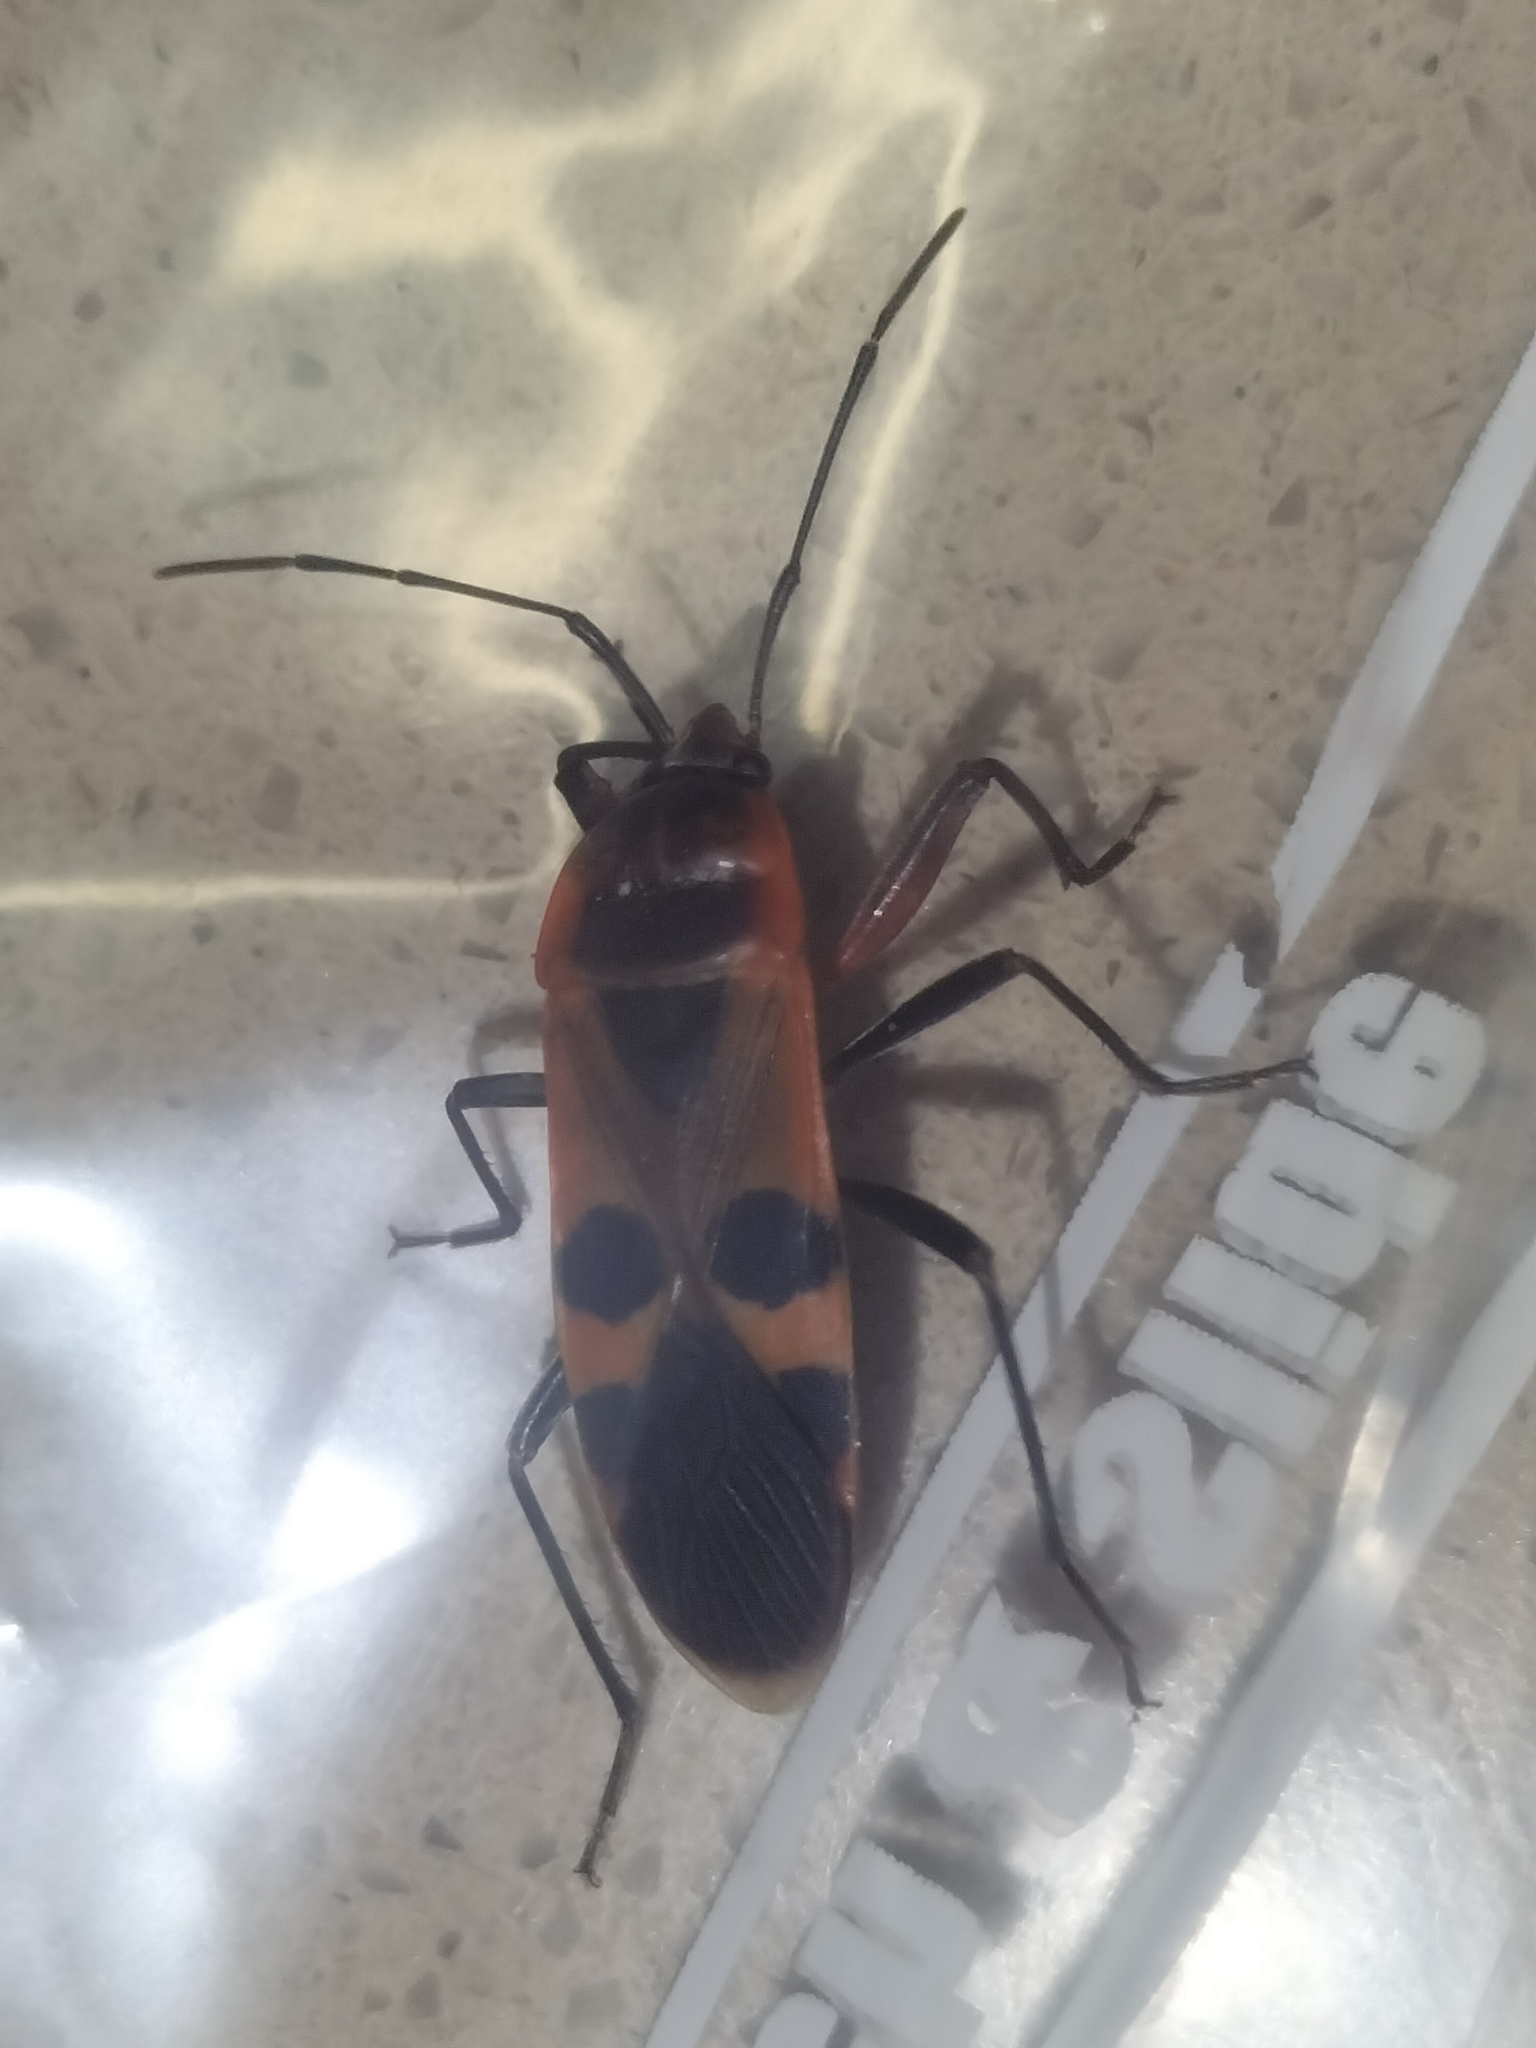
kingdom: Animalia
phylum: Arthropoda
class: Insecta
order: Hemiptera
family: Largidae
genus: Physopelta
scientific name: Physopelta gutta
